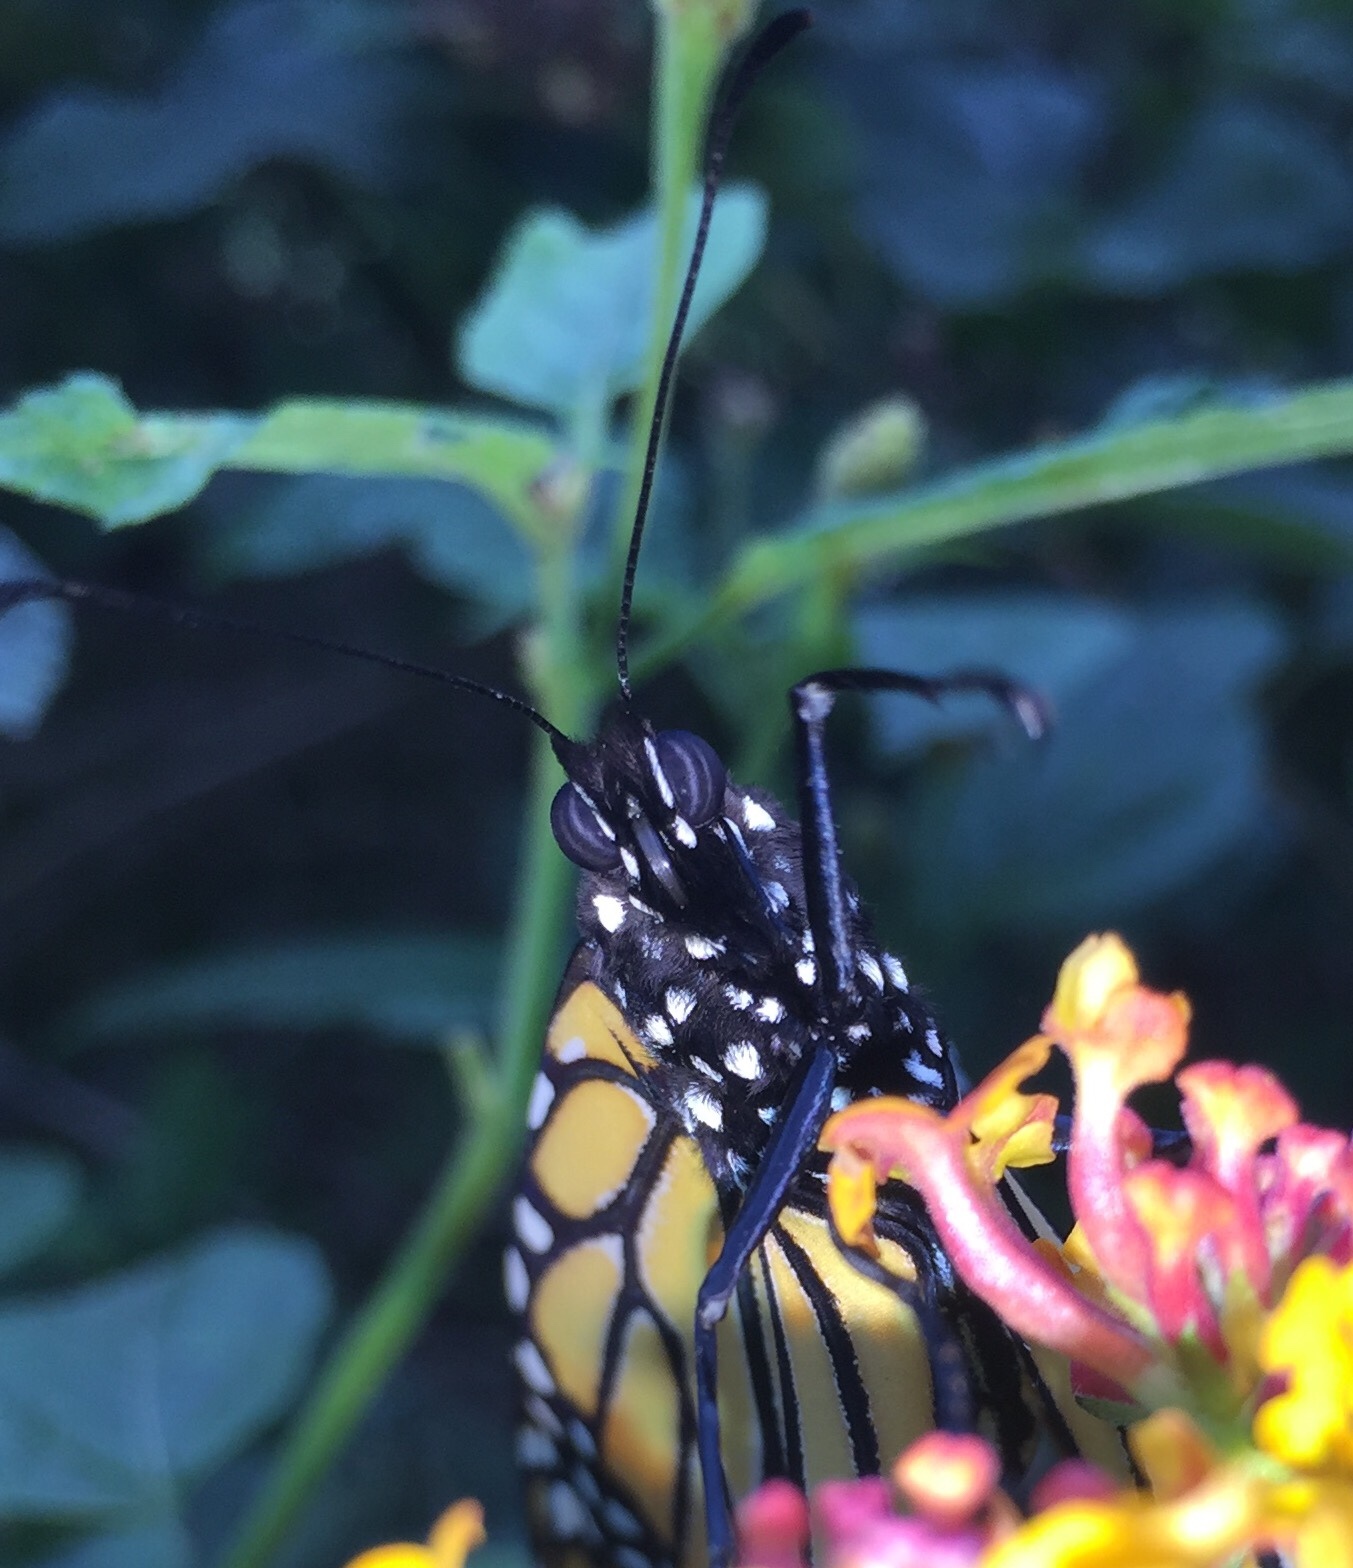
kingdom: Animalia
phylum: Arthropoda
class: Insecta
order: Lepidoptera
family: Nymphalidae
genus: Danaus
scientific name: Danaus plexippus
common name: Monarch
